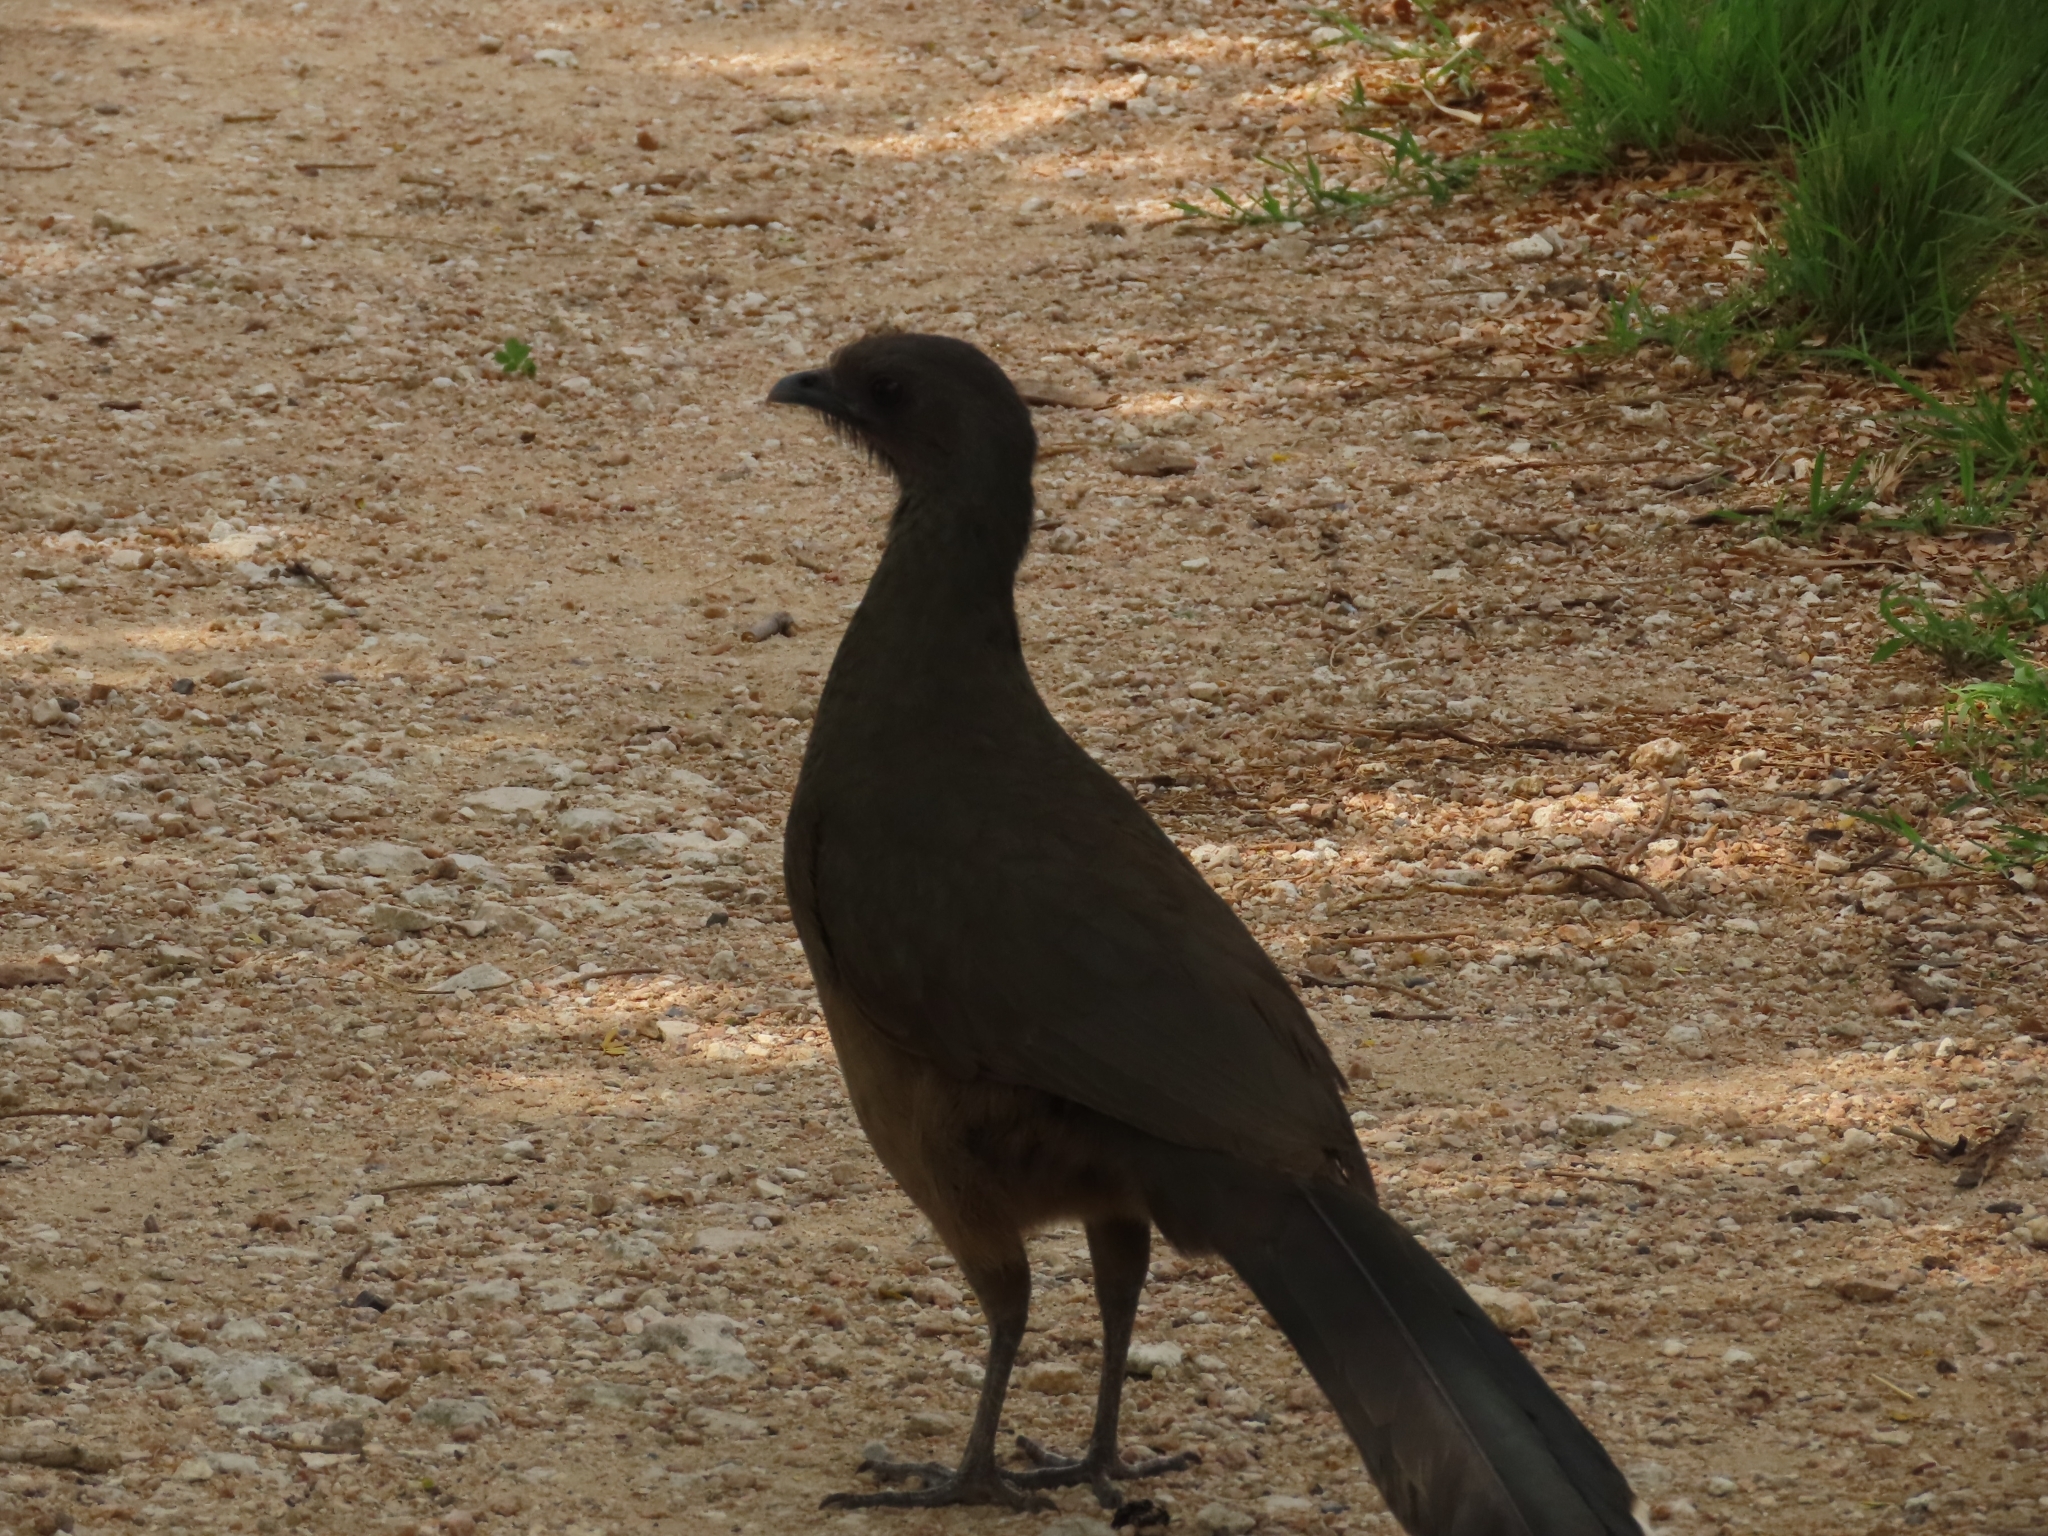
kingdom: Animalia
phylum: Chordata
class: Aves
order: Galliformes
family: Cracidae
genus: Ortalis
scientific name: Ortalis vetula
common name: Plain chachalaca
